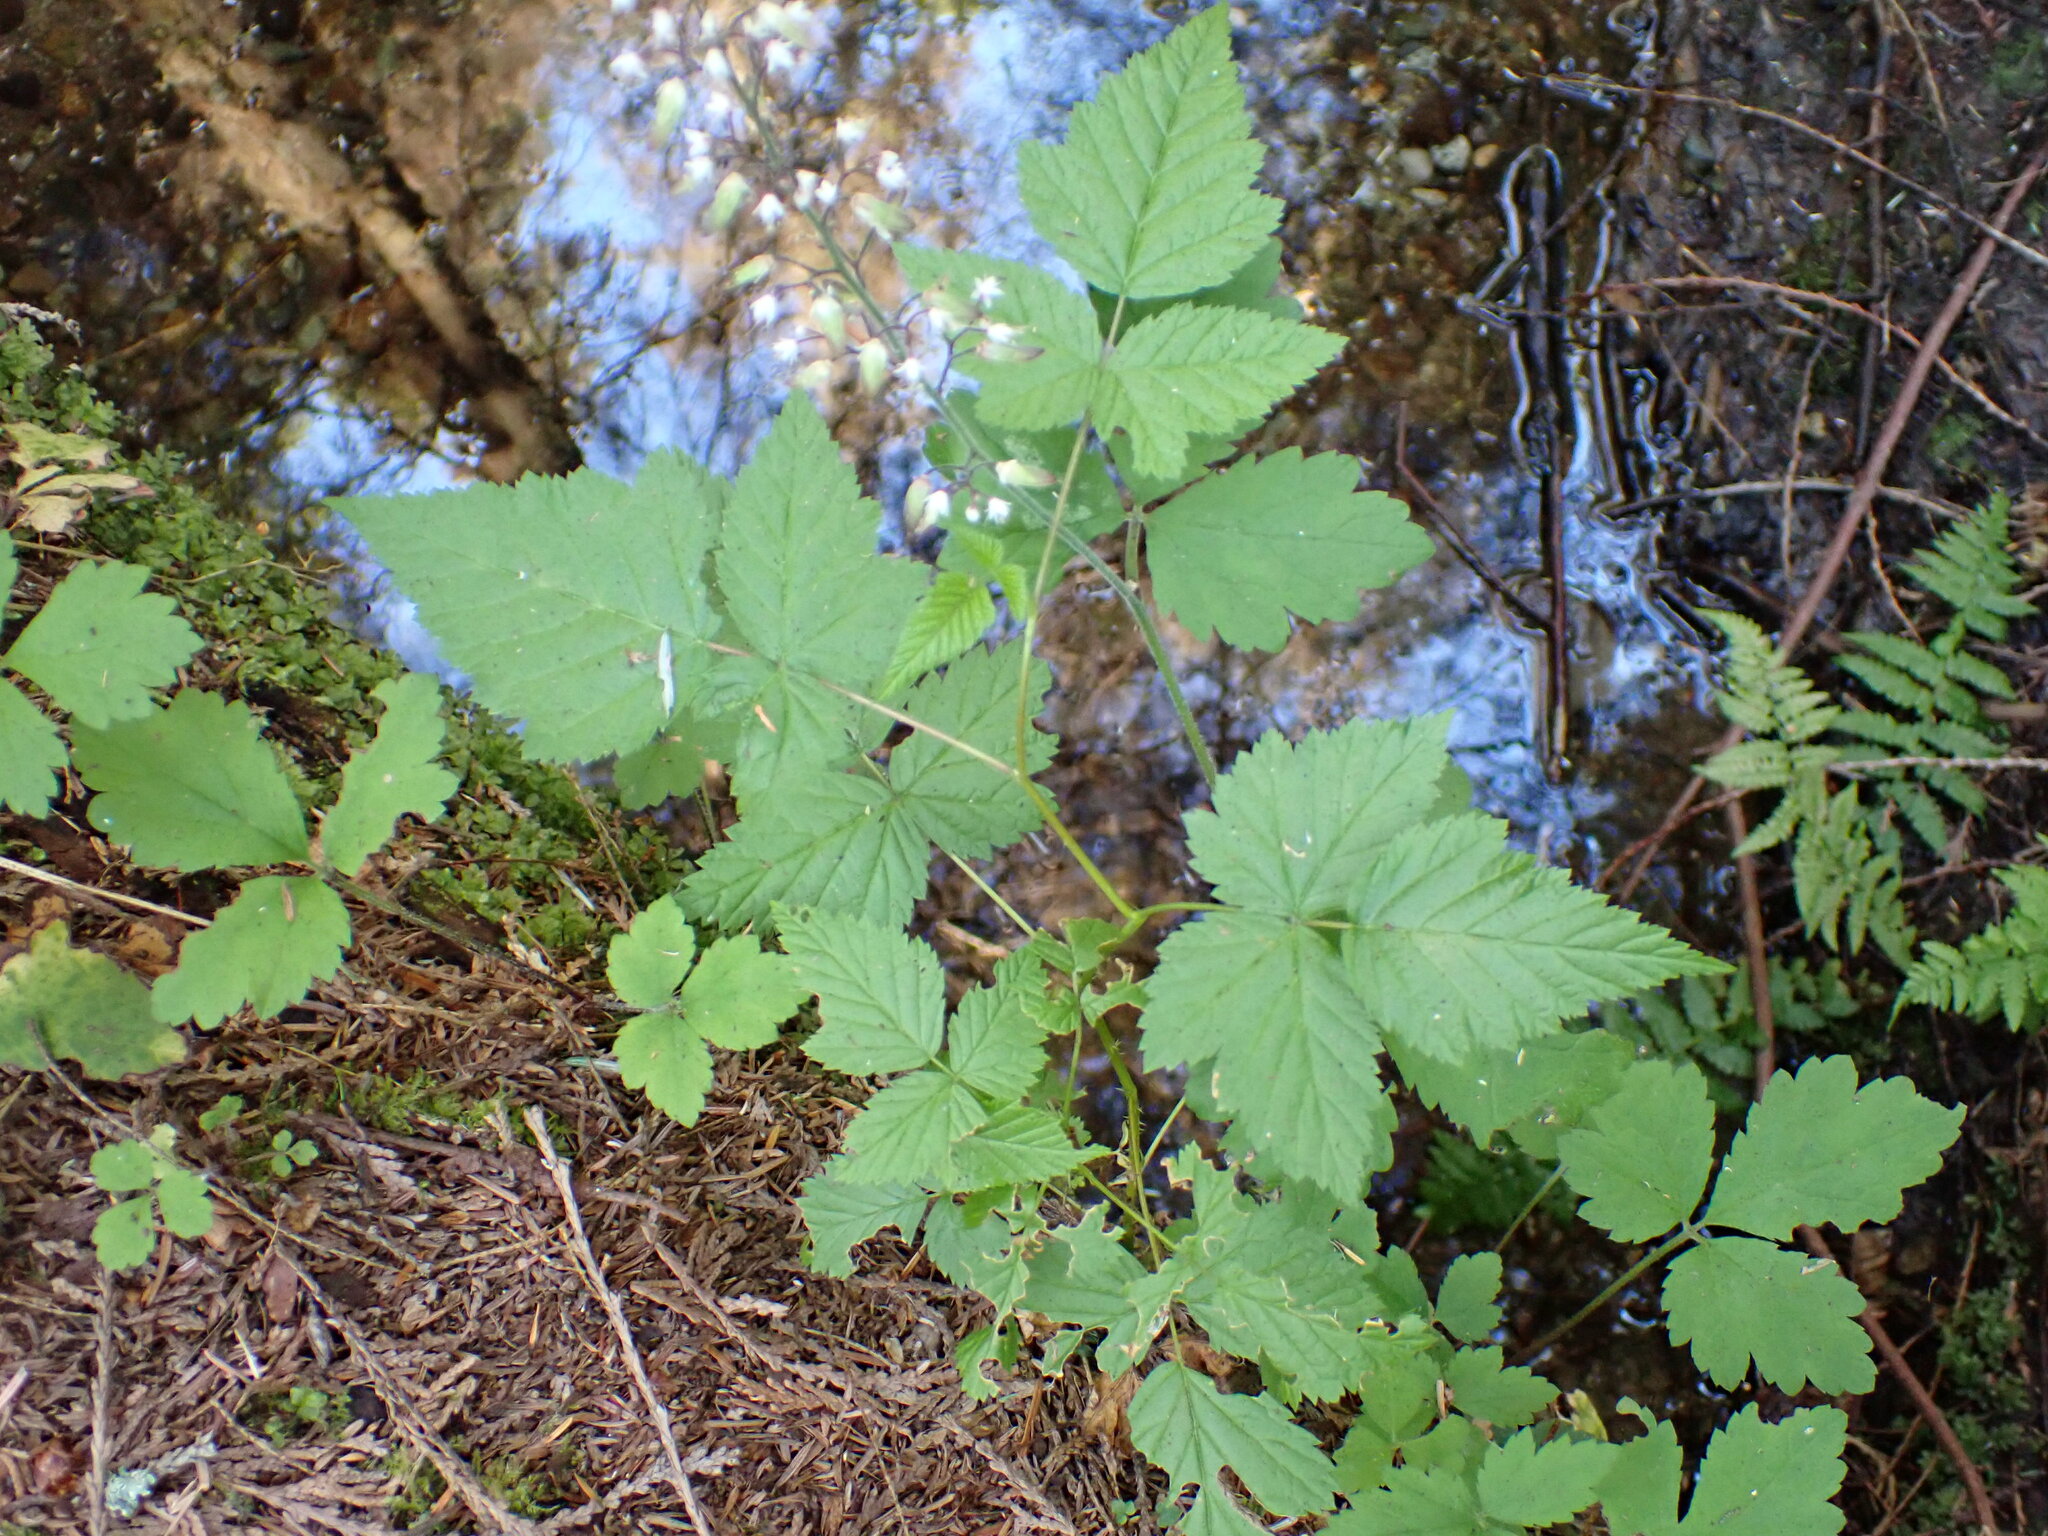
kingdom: Plantae
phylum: Tracheophyta
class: Magnoliopsida
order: Saxifragales
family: Saxifragaceae
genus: Tiarella
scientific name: Tiarella trifoliata
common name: Sugar-scoop
